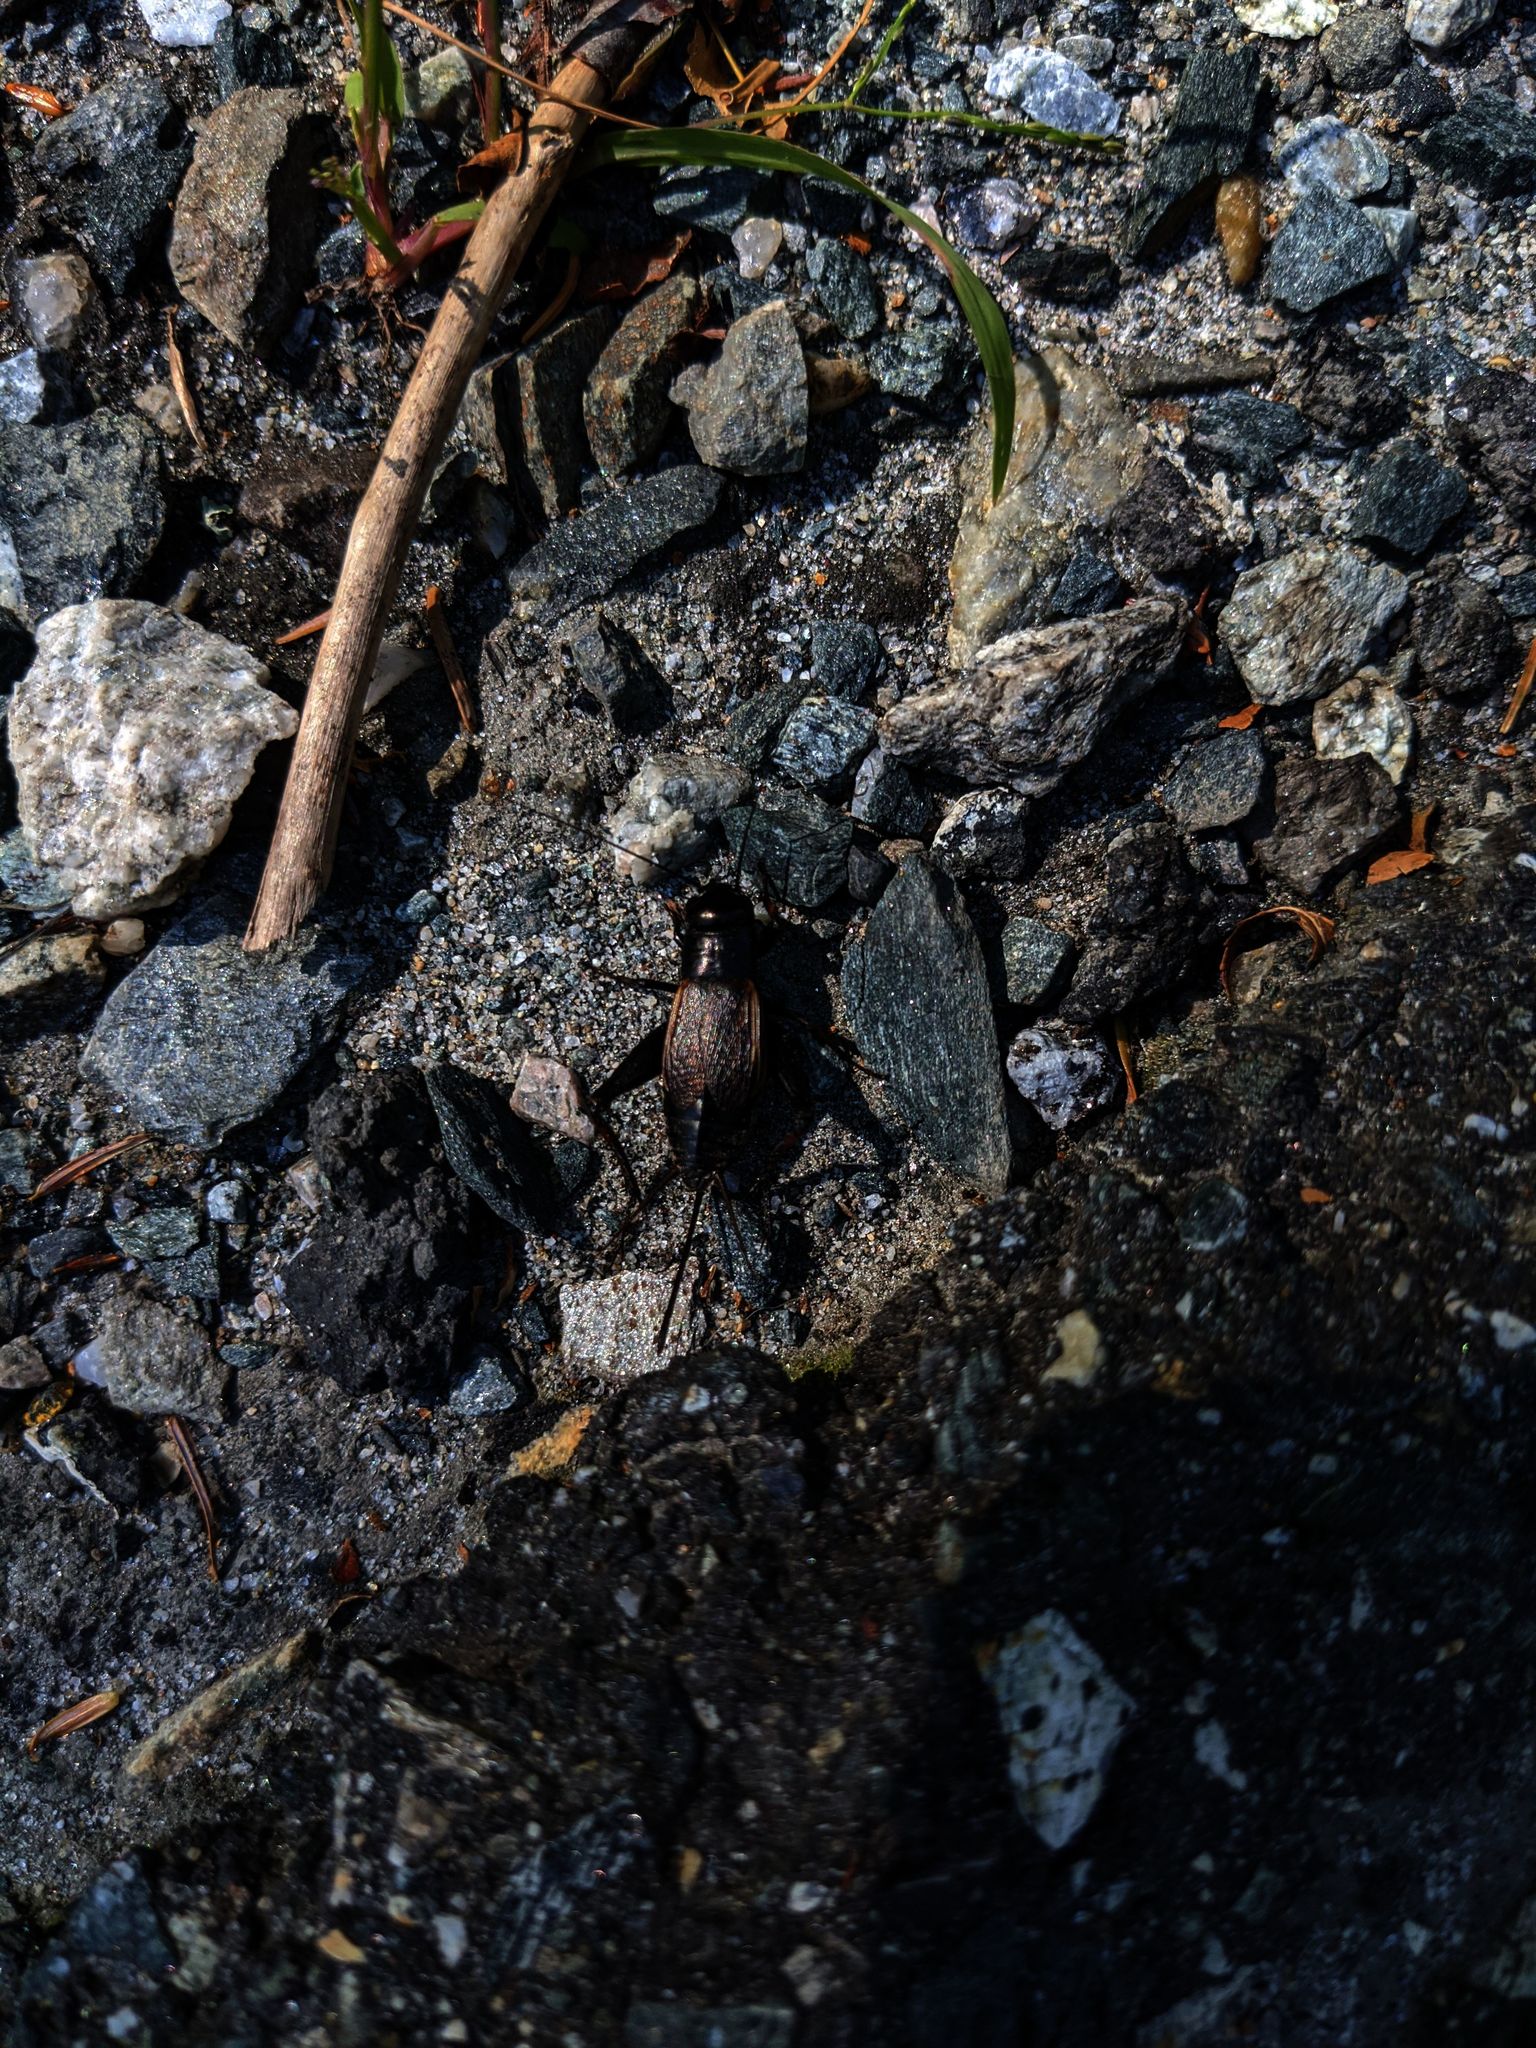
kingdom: Animalia
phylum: Arthropoda
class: Insecta
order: Orthoptera
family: Gryllidae
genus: Gryllus
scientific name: Gryllus pennsylvanicus
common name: Fall field cricket
